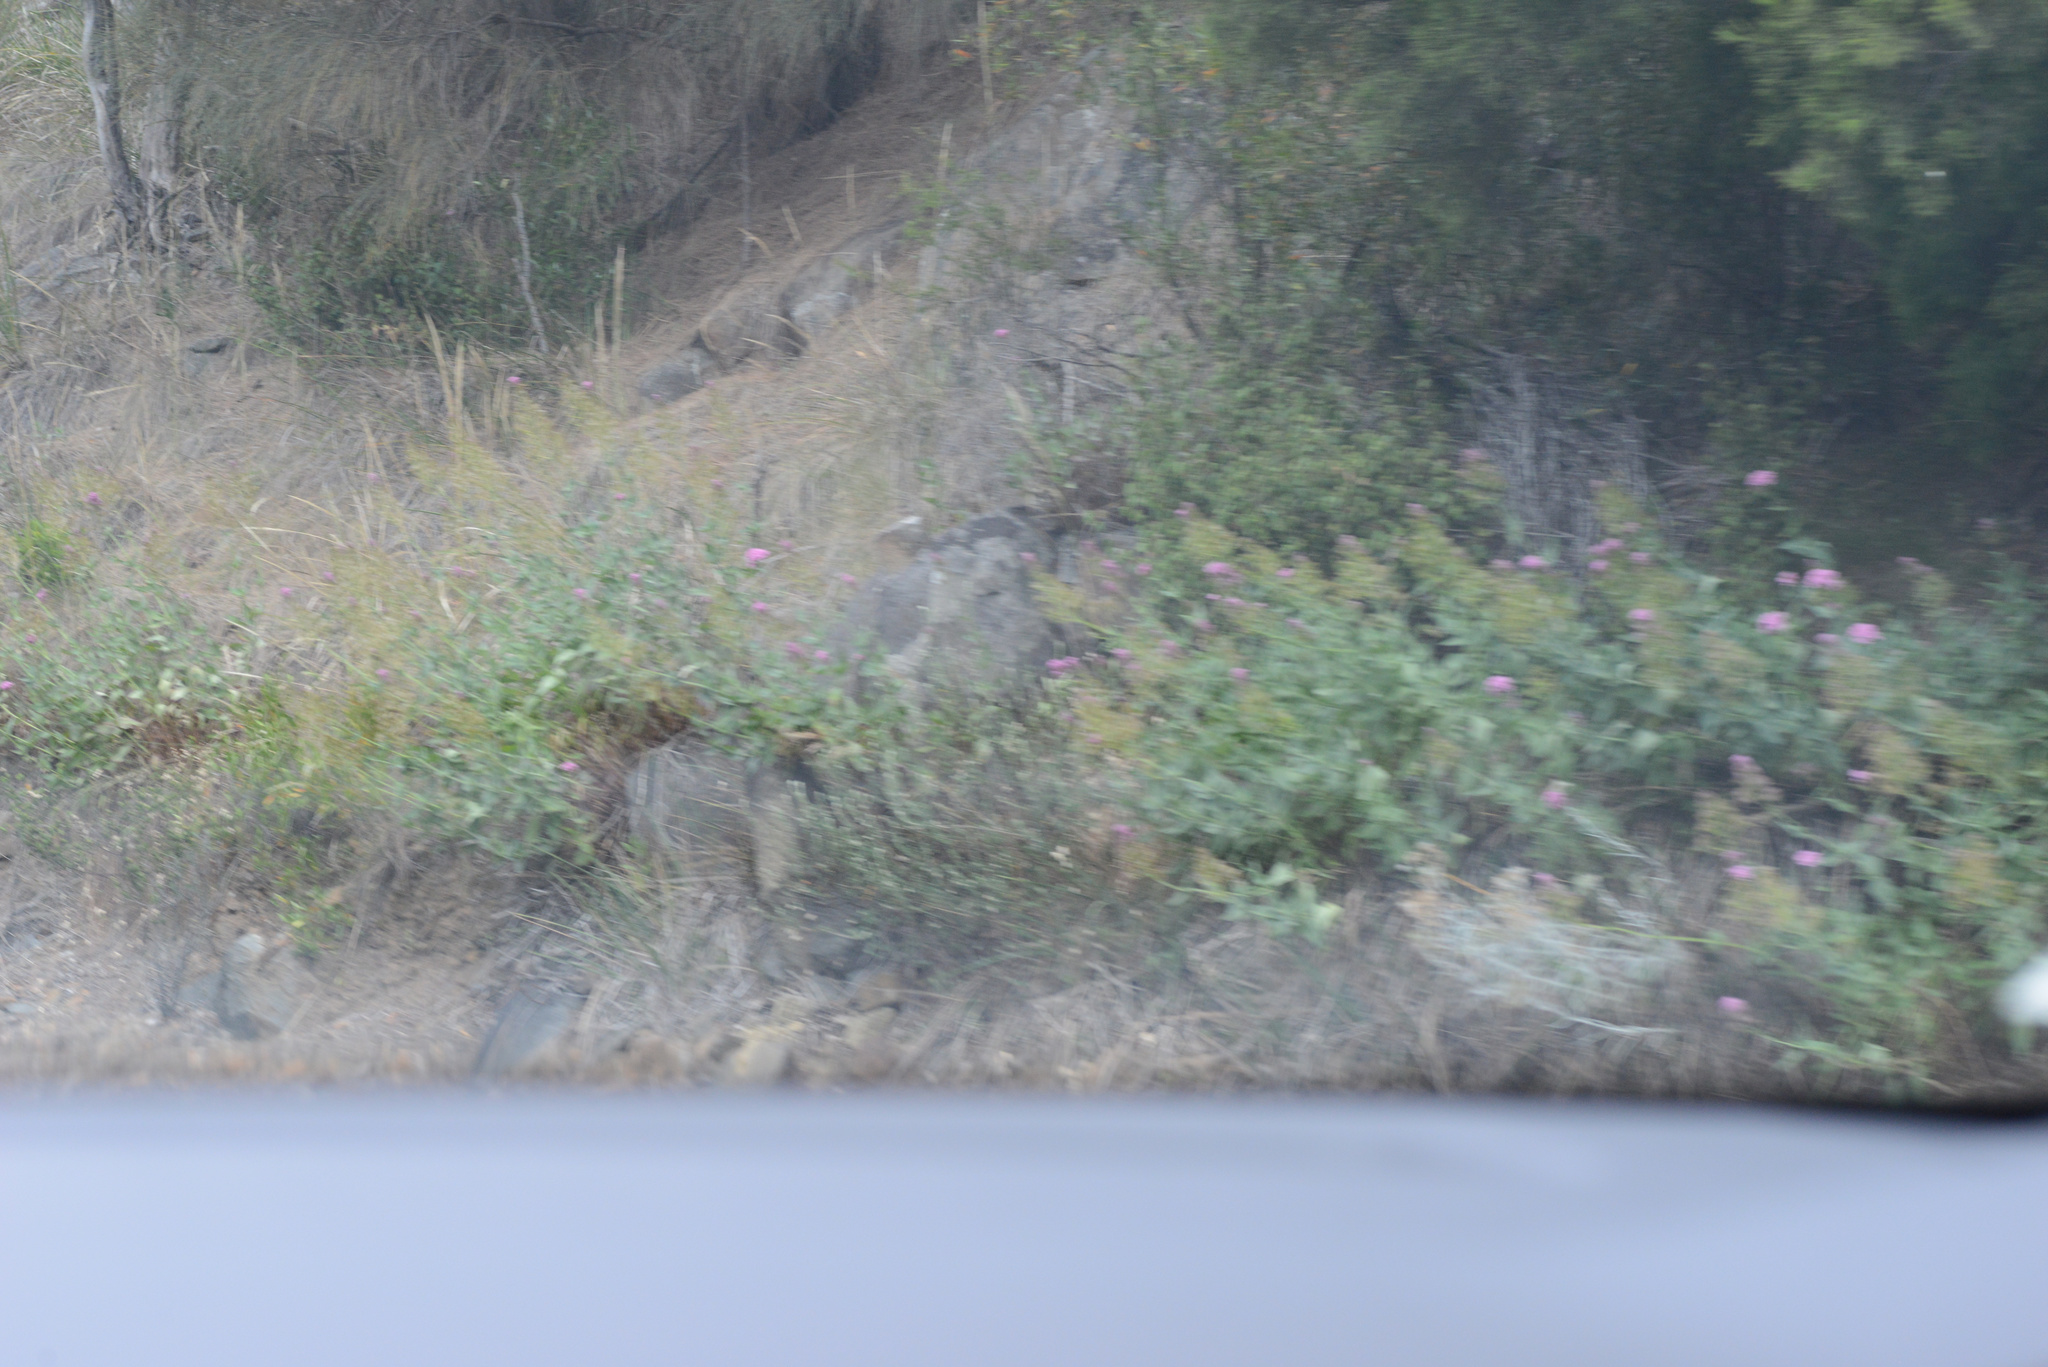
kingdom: Plantae
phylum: Tracheophyta
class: Magnoliopsida
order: Dipsacales
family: Caprifoliaceae
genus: Centranthus
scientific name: Centranthus ruber
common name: Red valerian
